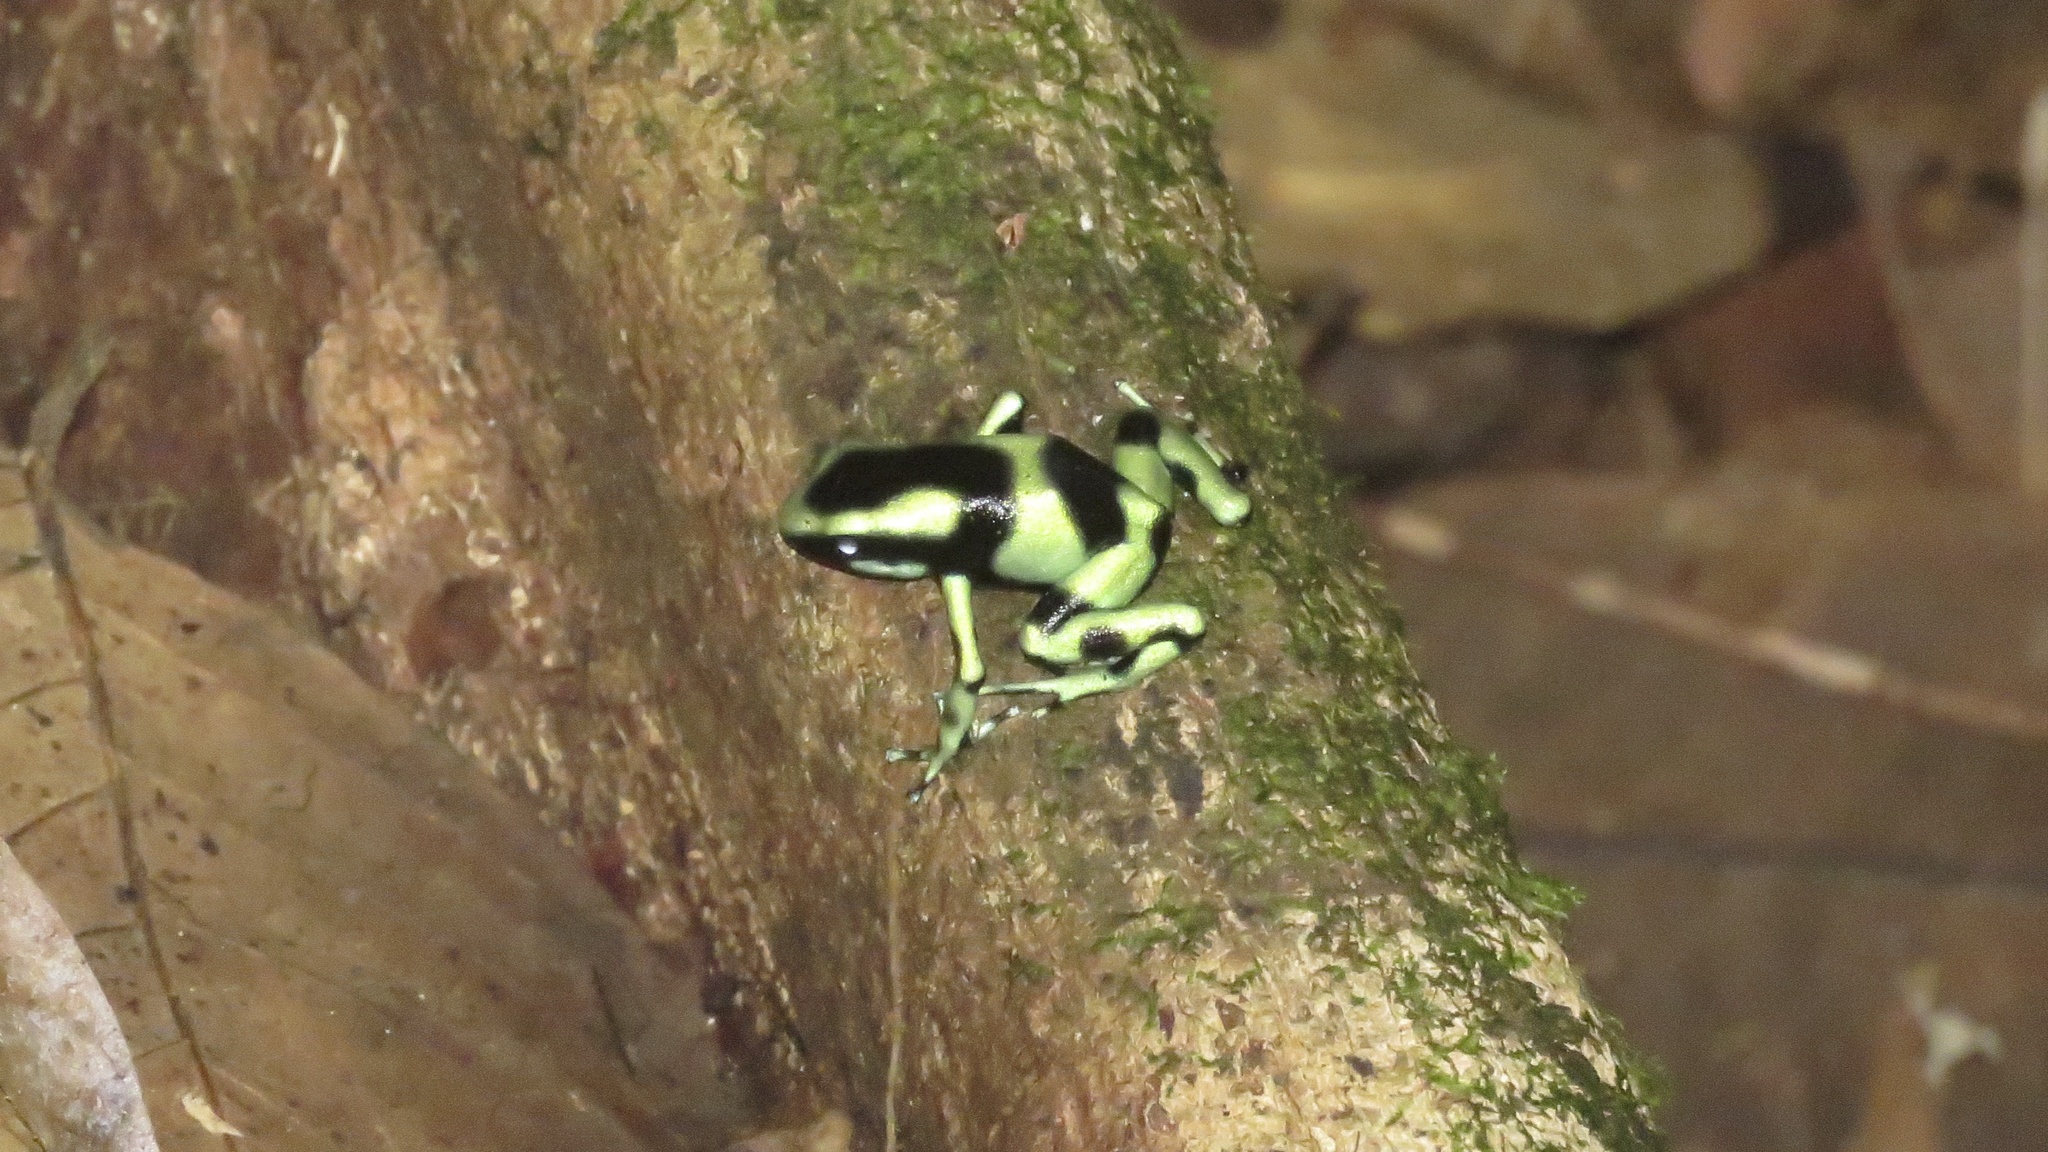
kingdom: Animalia
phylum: Chordata
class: Amphibia
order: Anura
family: Dendrobatidae
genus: Dendrobates
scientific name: Dendrobates auratus
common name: Green and black poison dart frog
